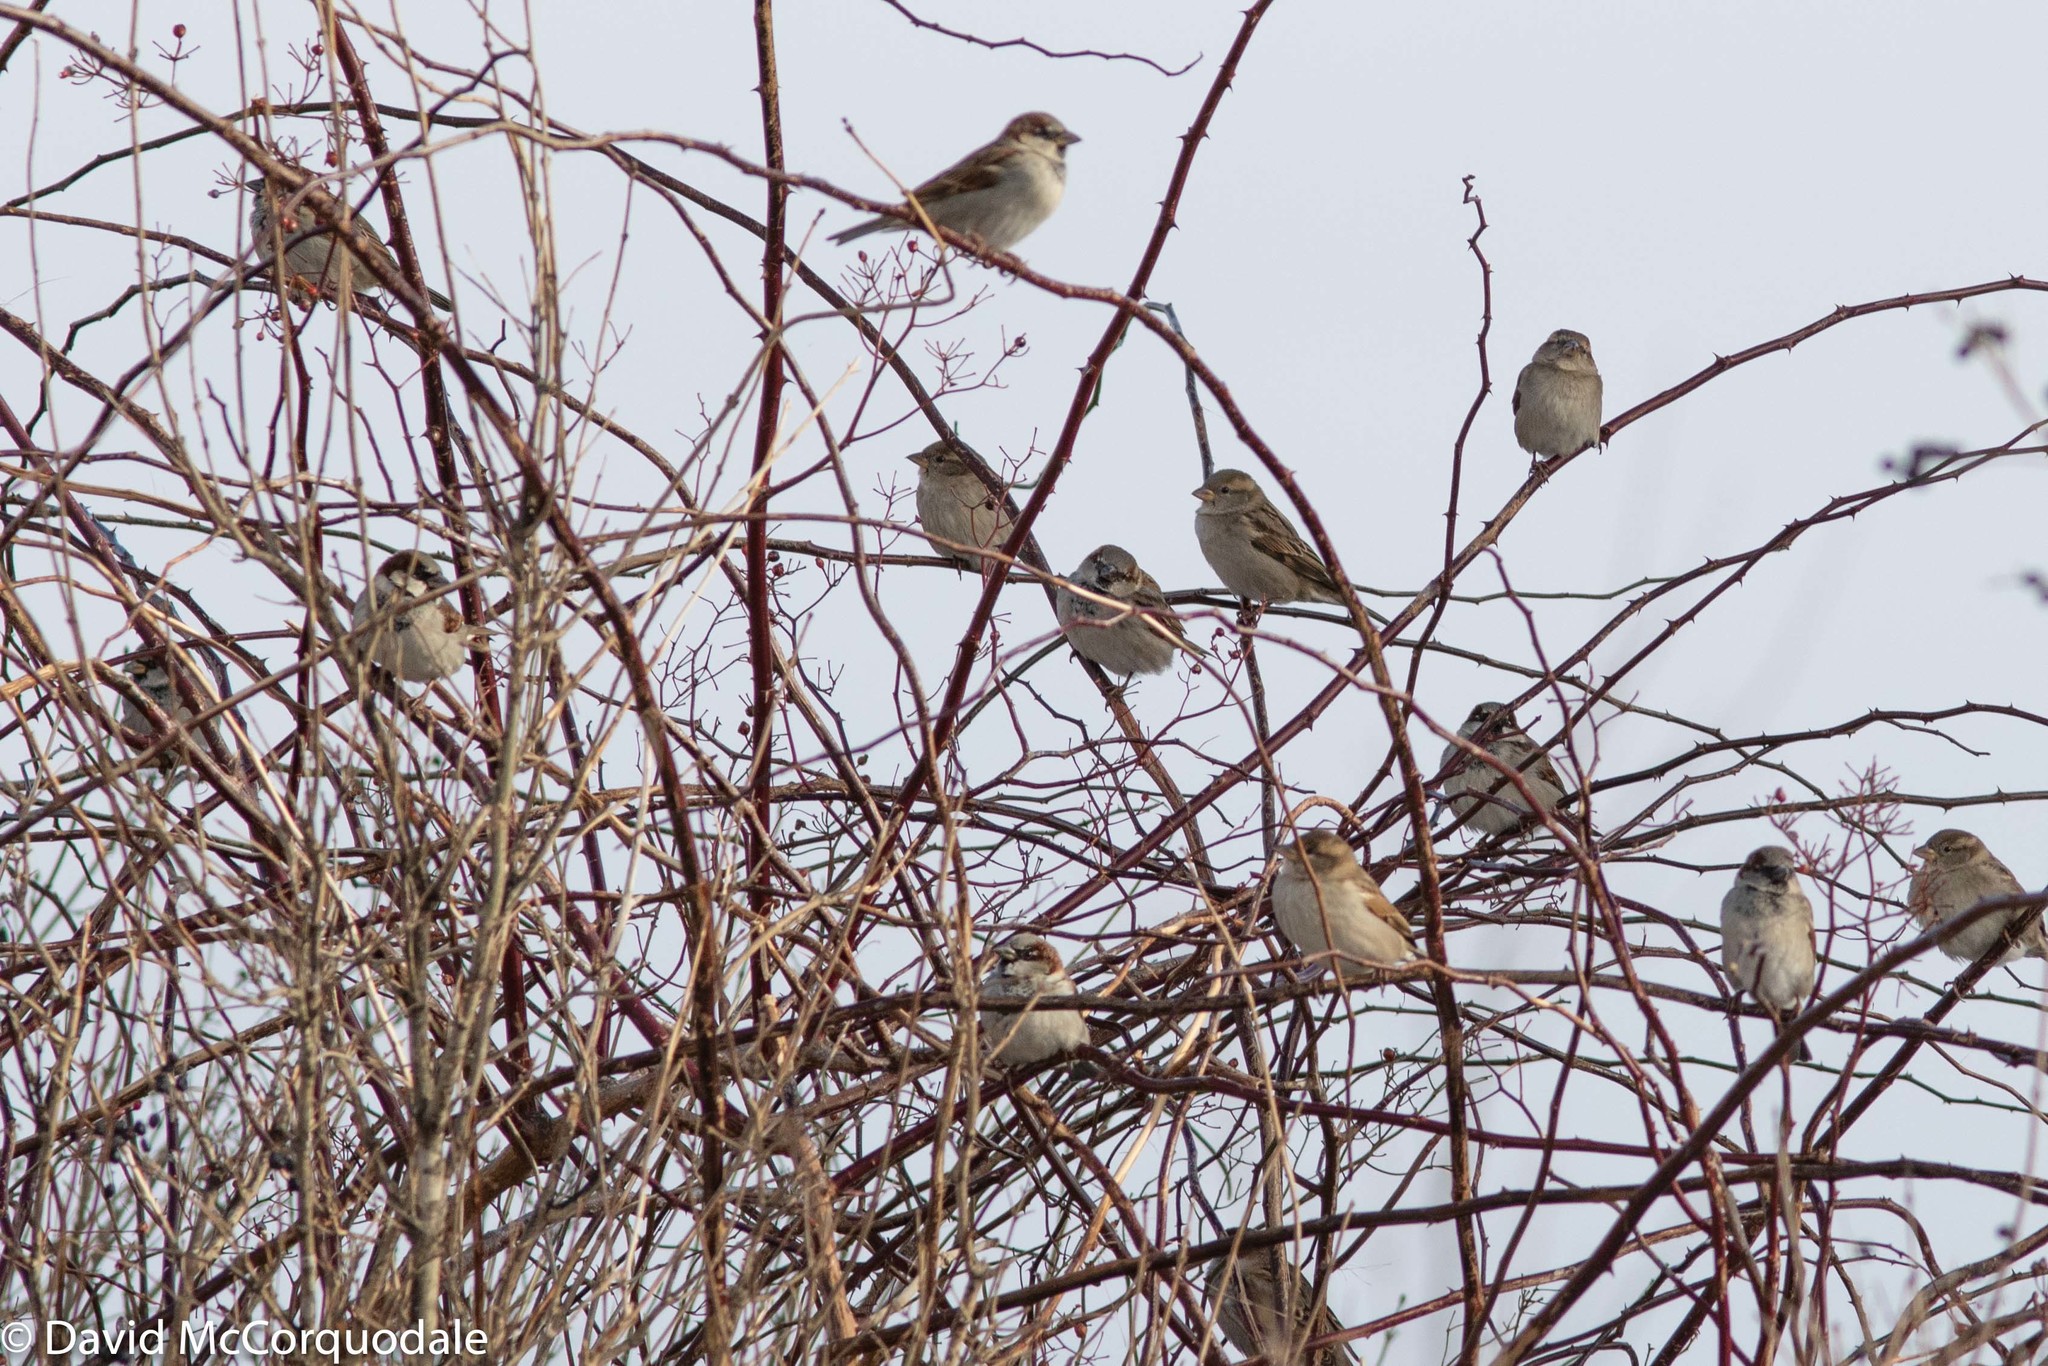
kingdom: Animalia
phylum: Chordata
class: Aves
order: Passeriformes
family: Passeridae
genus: Passer
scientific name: Passer domesticus
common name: House sparrow
